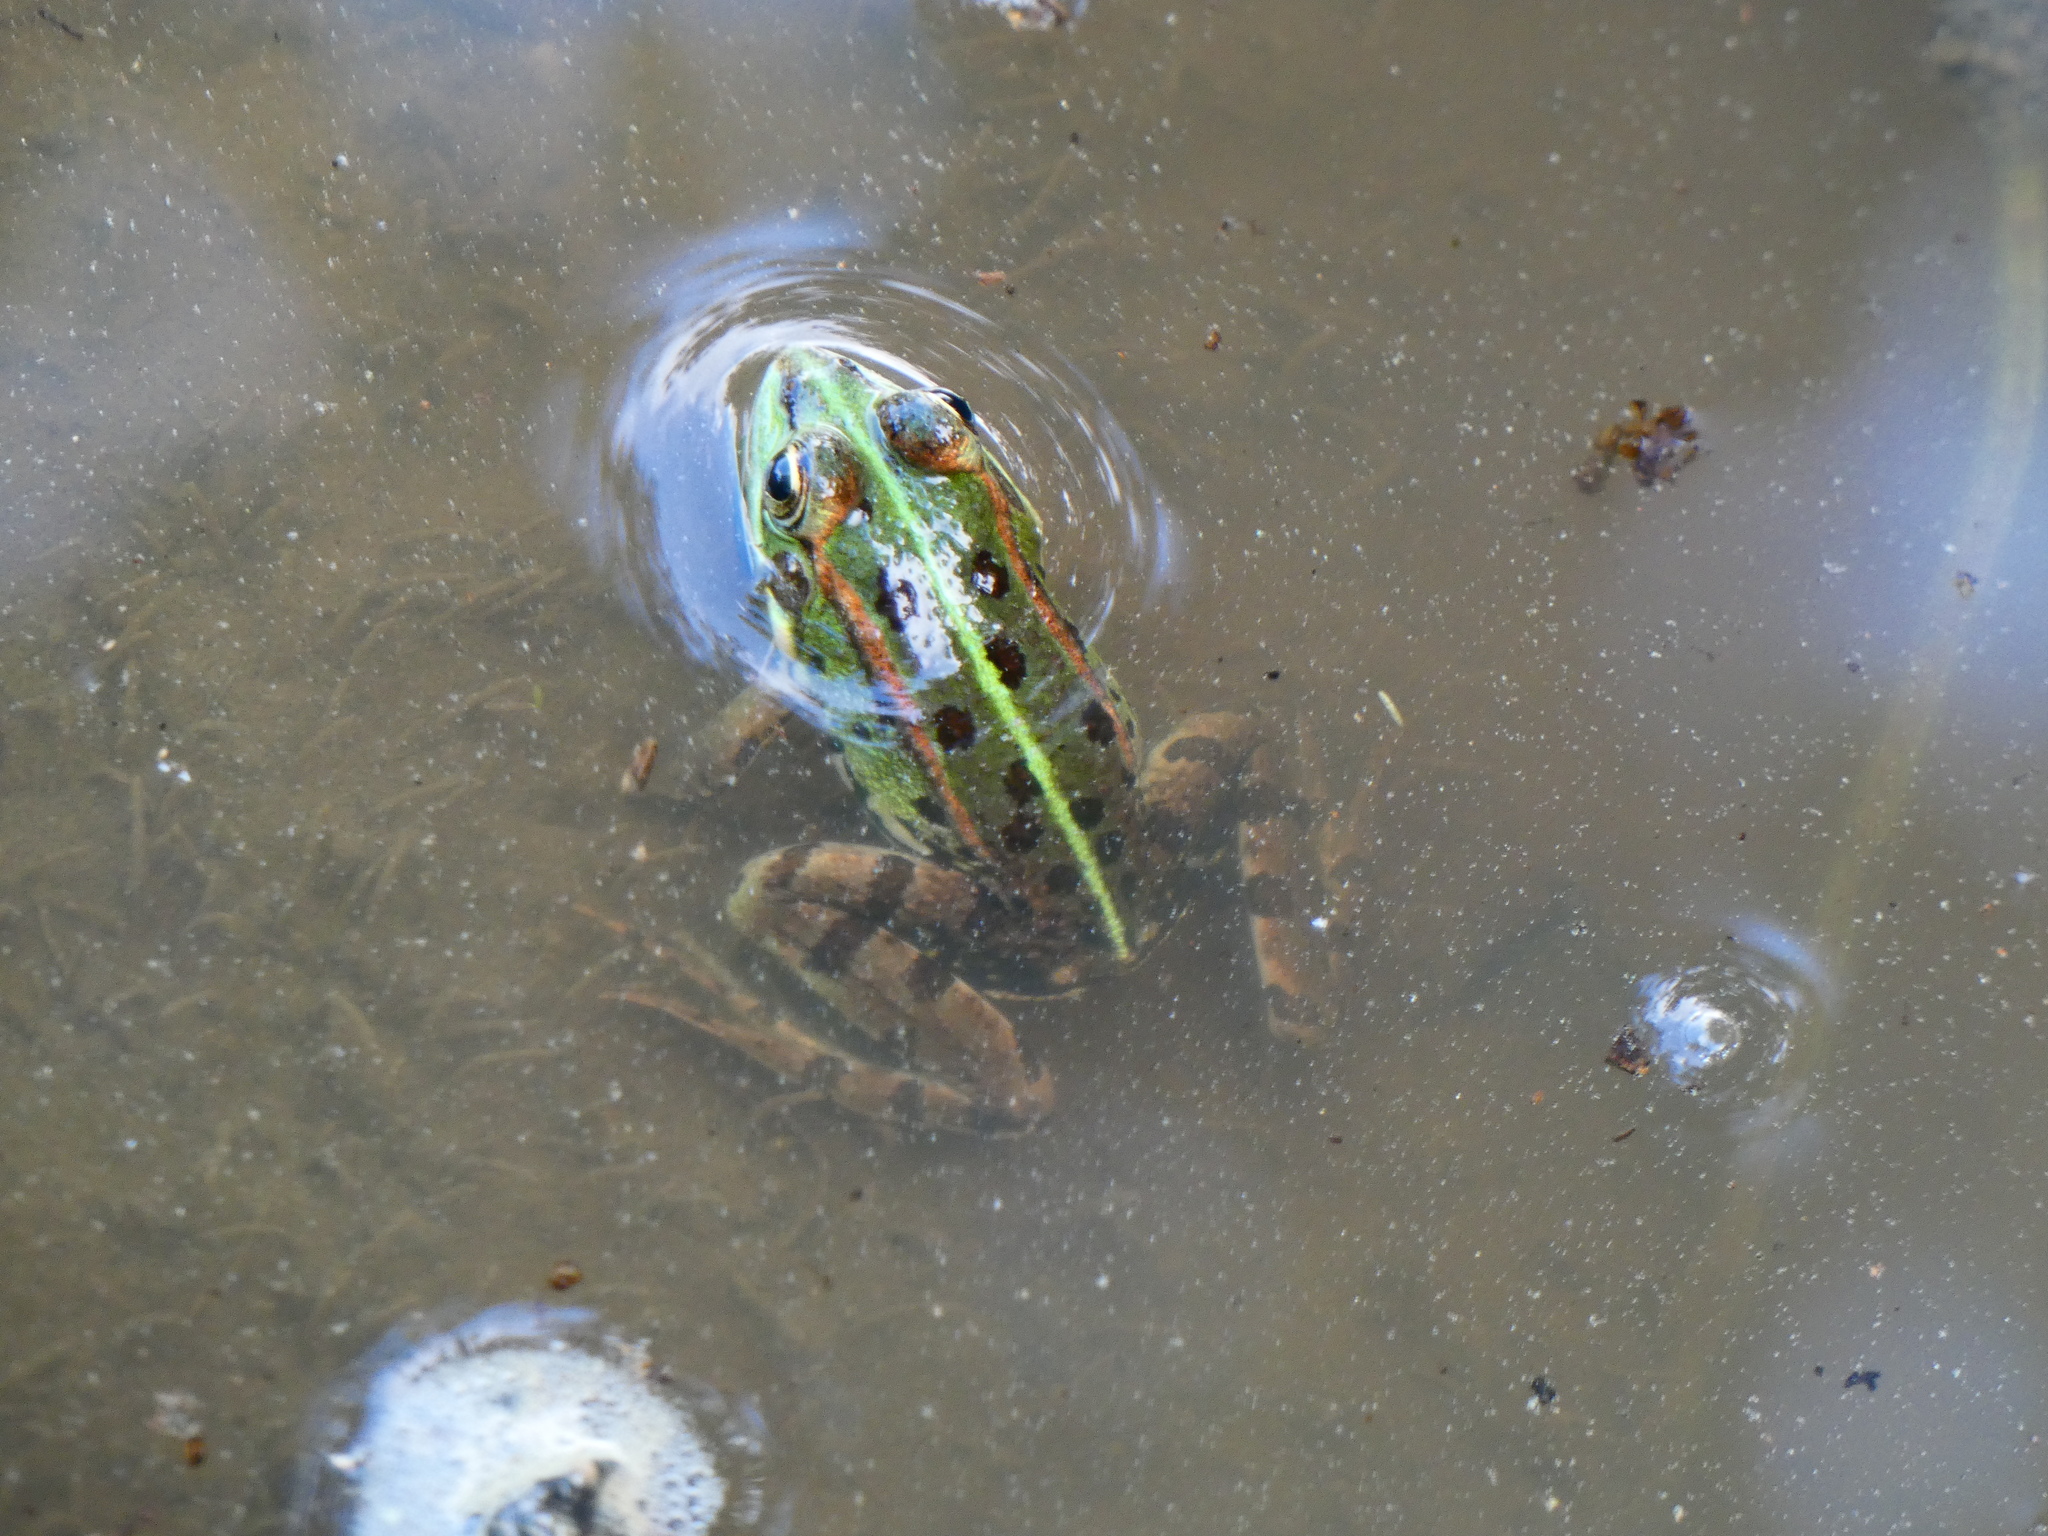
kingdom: Animalia
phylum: Chordata
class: Amphibia
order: Anura
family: Ranidae
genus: Pelophylax
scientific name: Pelophylax perezi
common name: Perez's frog
